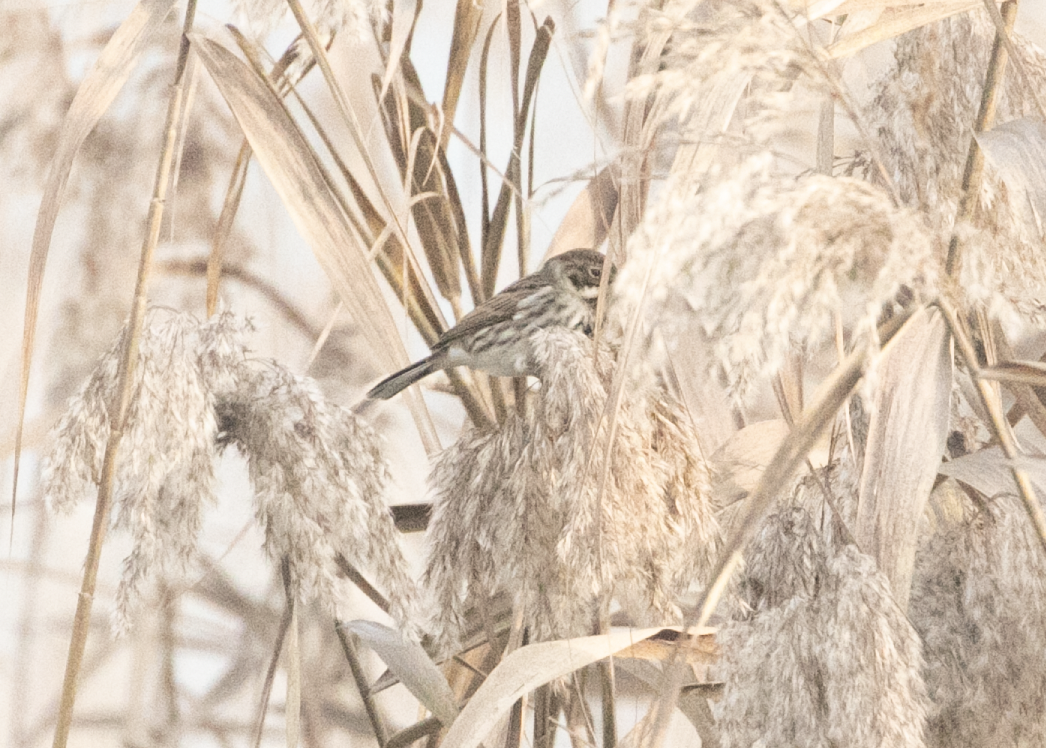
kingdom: Animalia
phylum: Chordata
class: Aves
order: Passeriformes
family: Emberizidae
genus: Emberiza
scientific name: Emberiza schoeniclus
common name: Reed bunting
